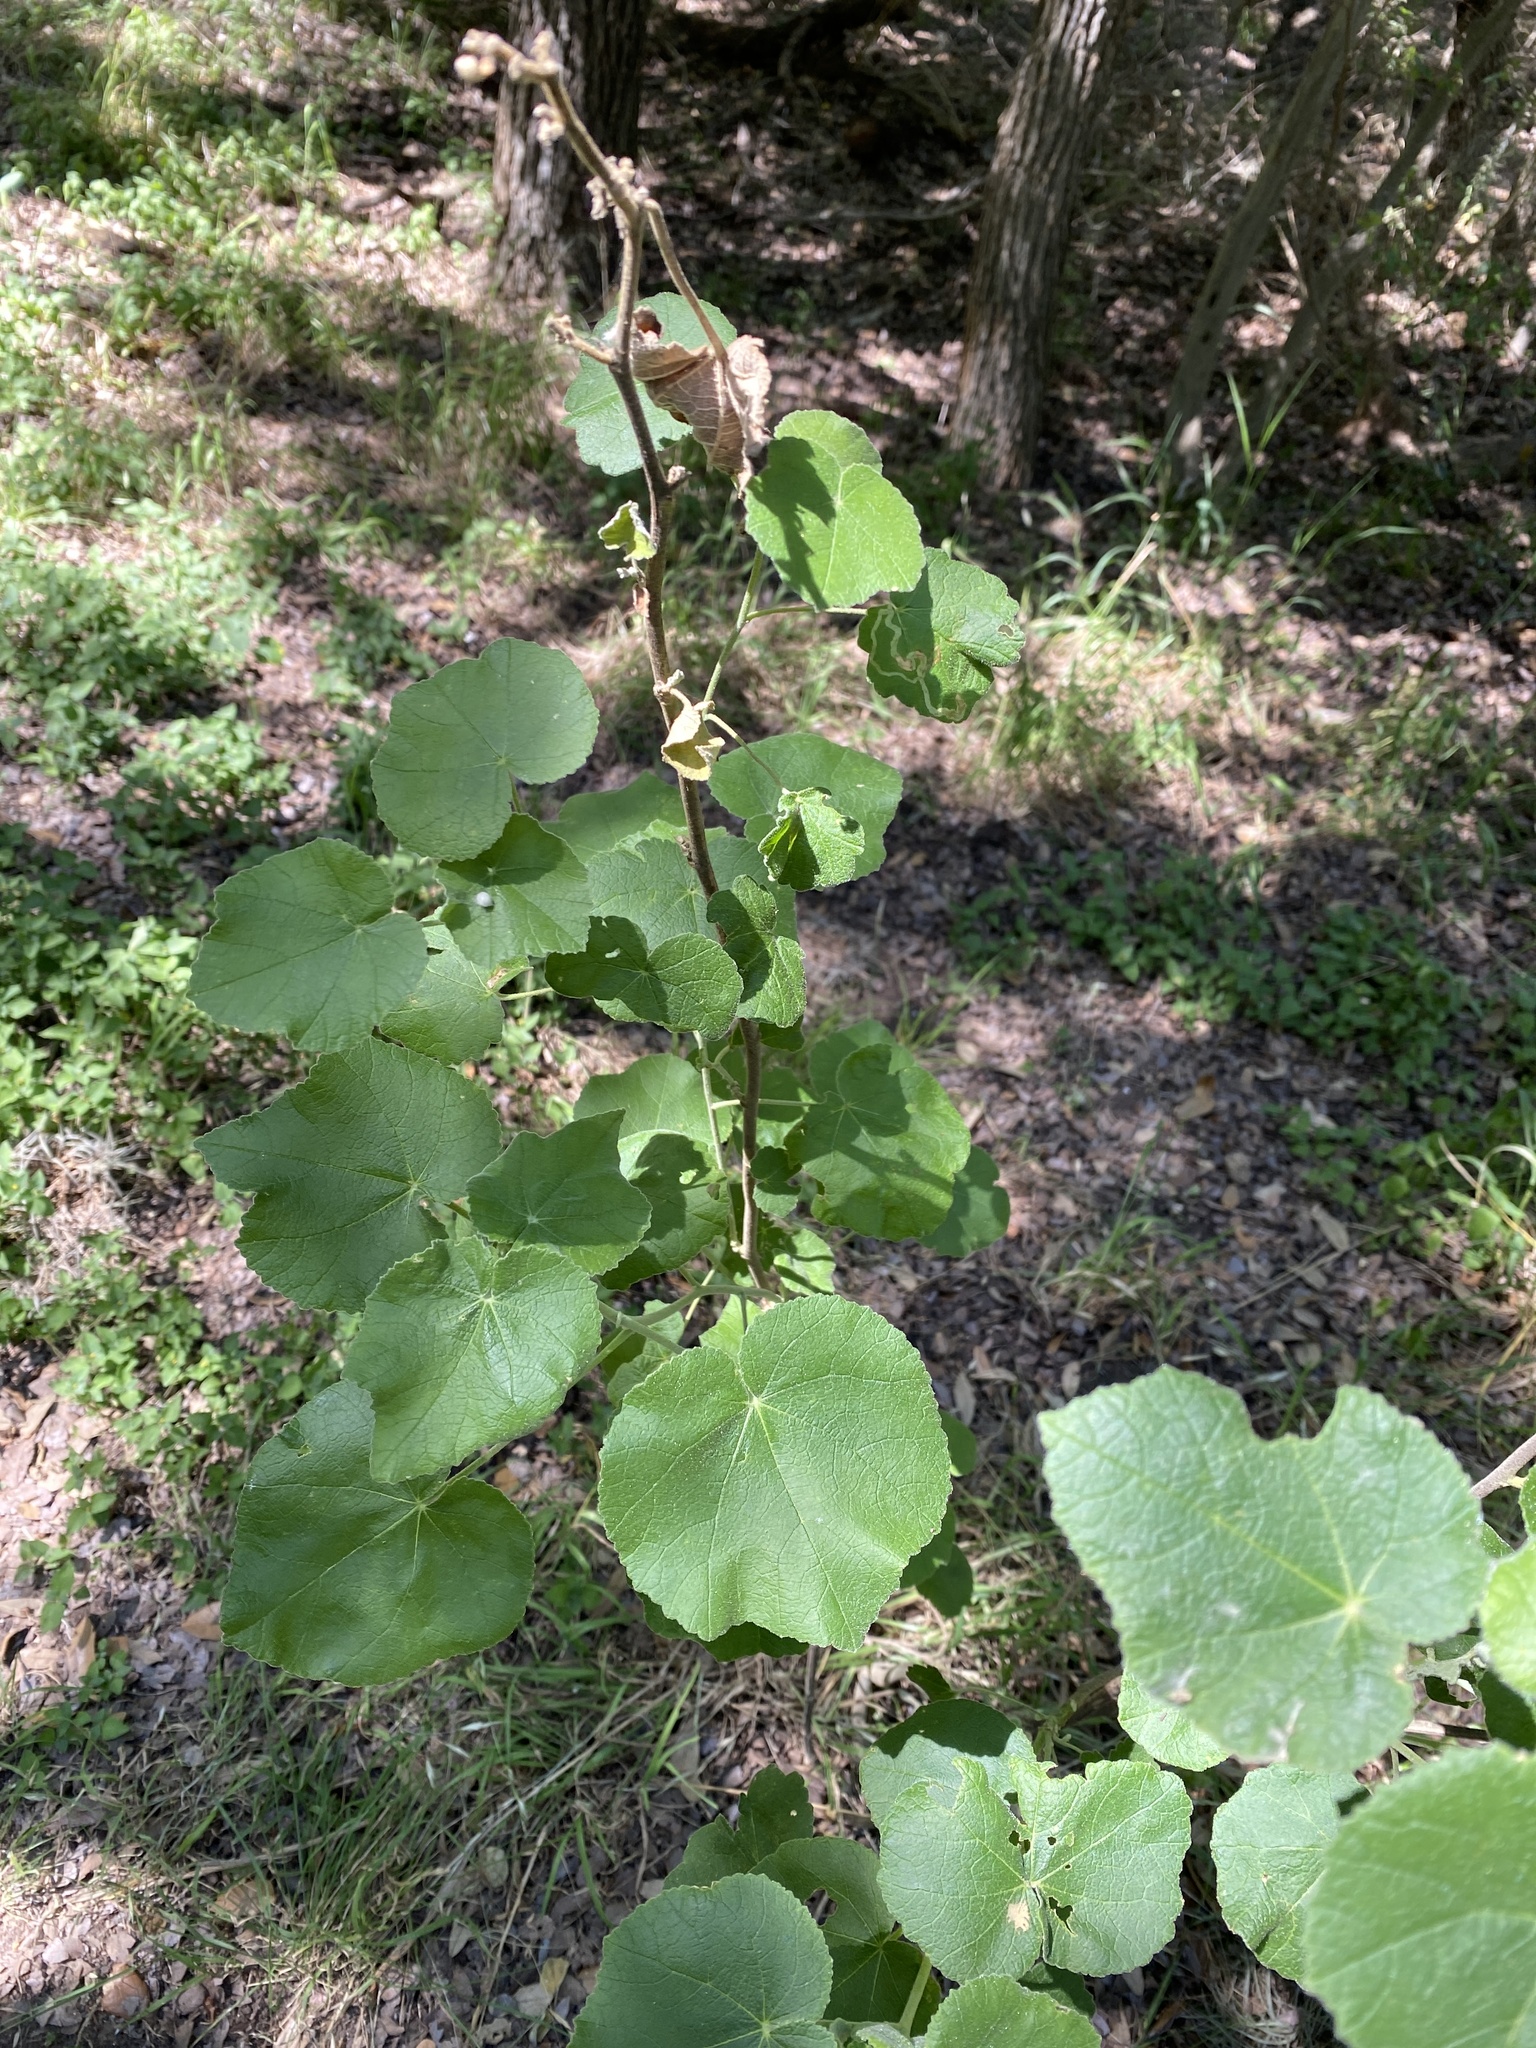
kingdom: Plantae
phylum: Tracheophyta
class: Magnoliopsida
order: Malvales
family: Malvaceae
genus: Allowissadula
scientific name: Allowissadula holosericea
